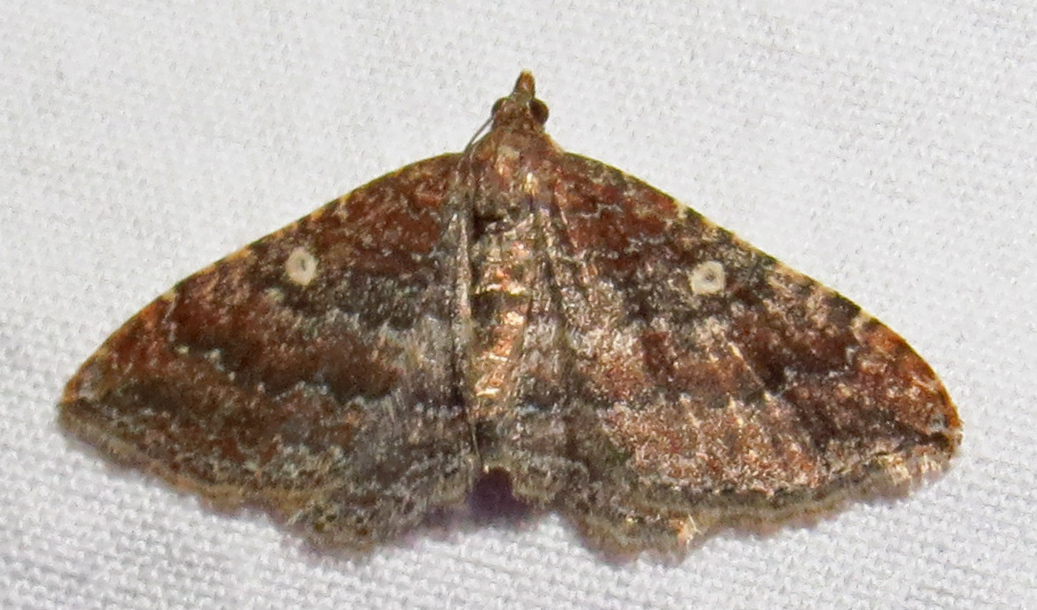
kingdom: Animalia
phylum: Arthropoda
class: Insecta
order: Lepidoptera
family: Geometridae
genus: Orthonama
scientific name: Orthonama obstipata
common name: The gem
